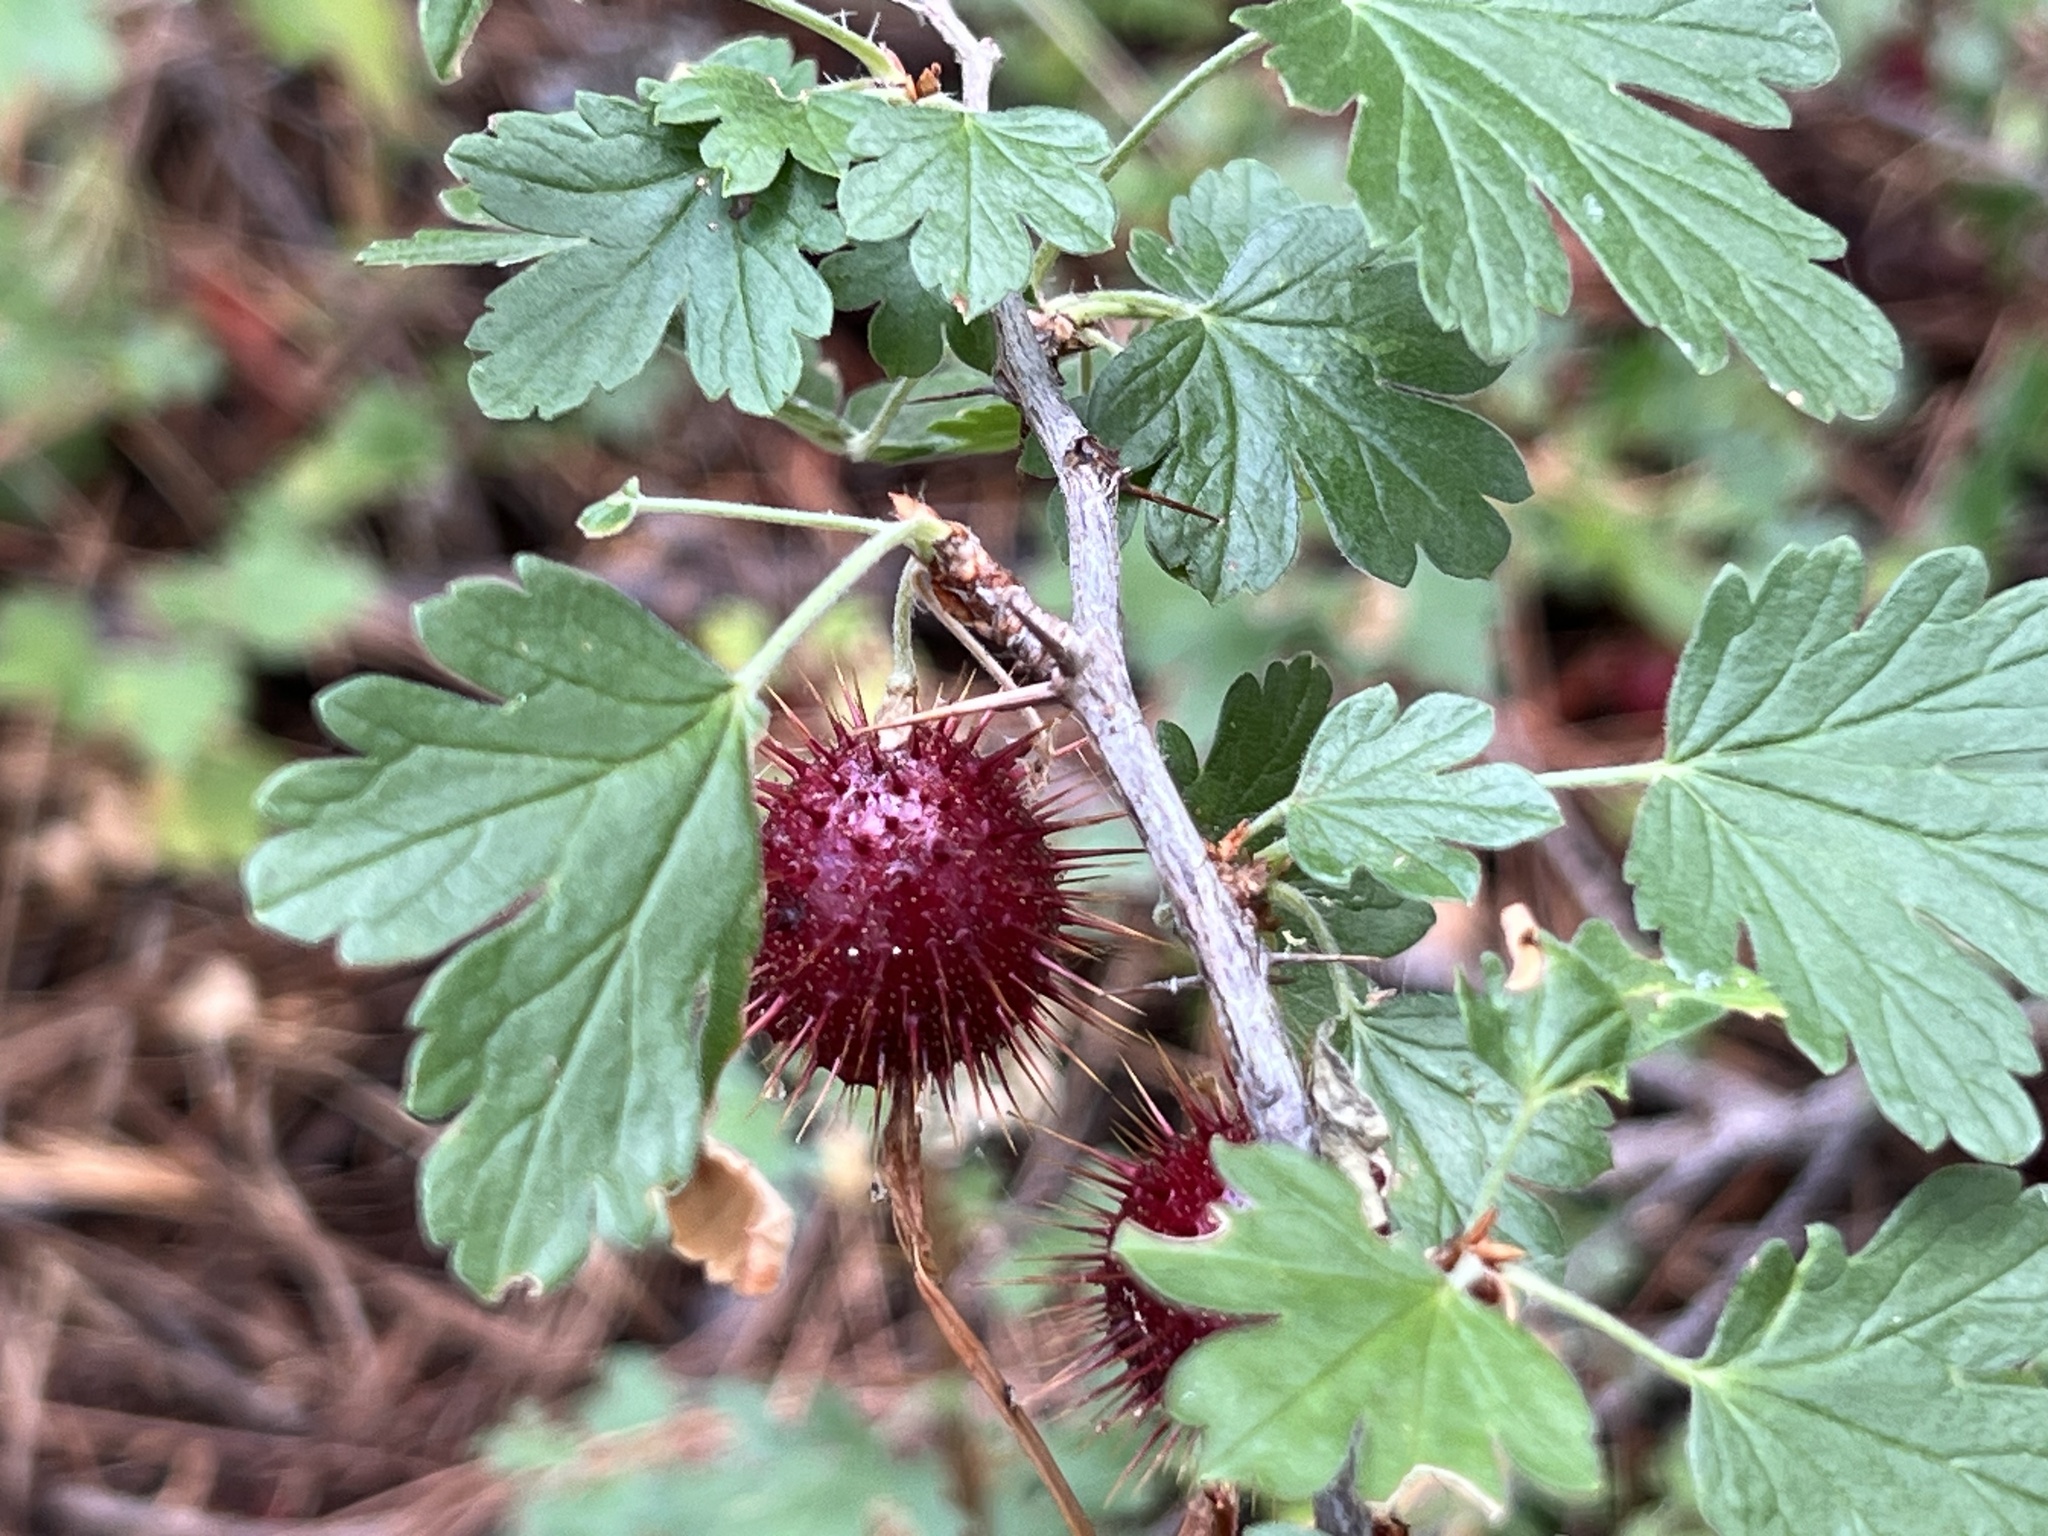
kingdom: Plantae
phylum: Tracheophyta
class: Magnoliopsida
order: Saxifragales
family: Grossulariaceae
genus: Ribes
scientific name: Ribes roezlii
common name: Sierra gooseberry
